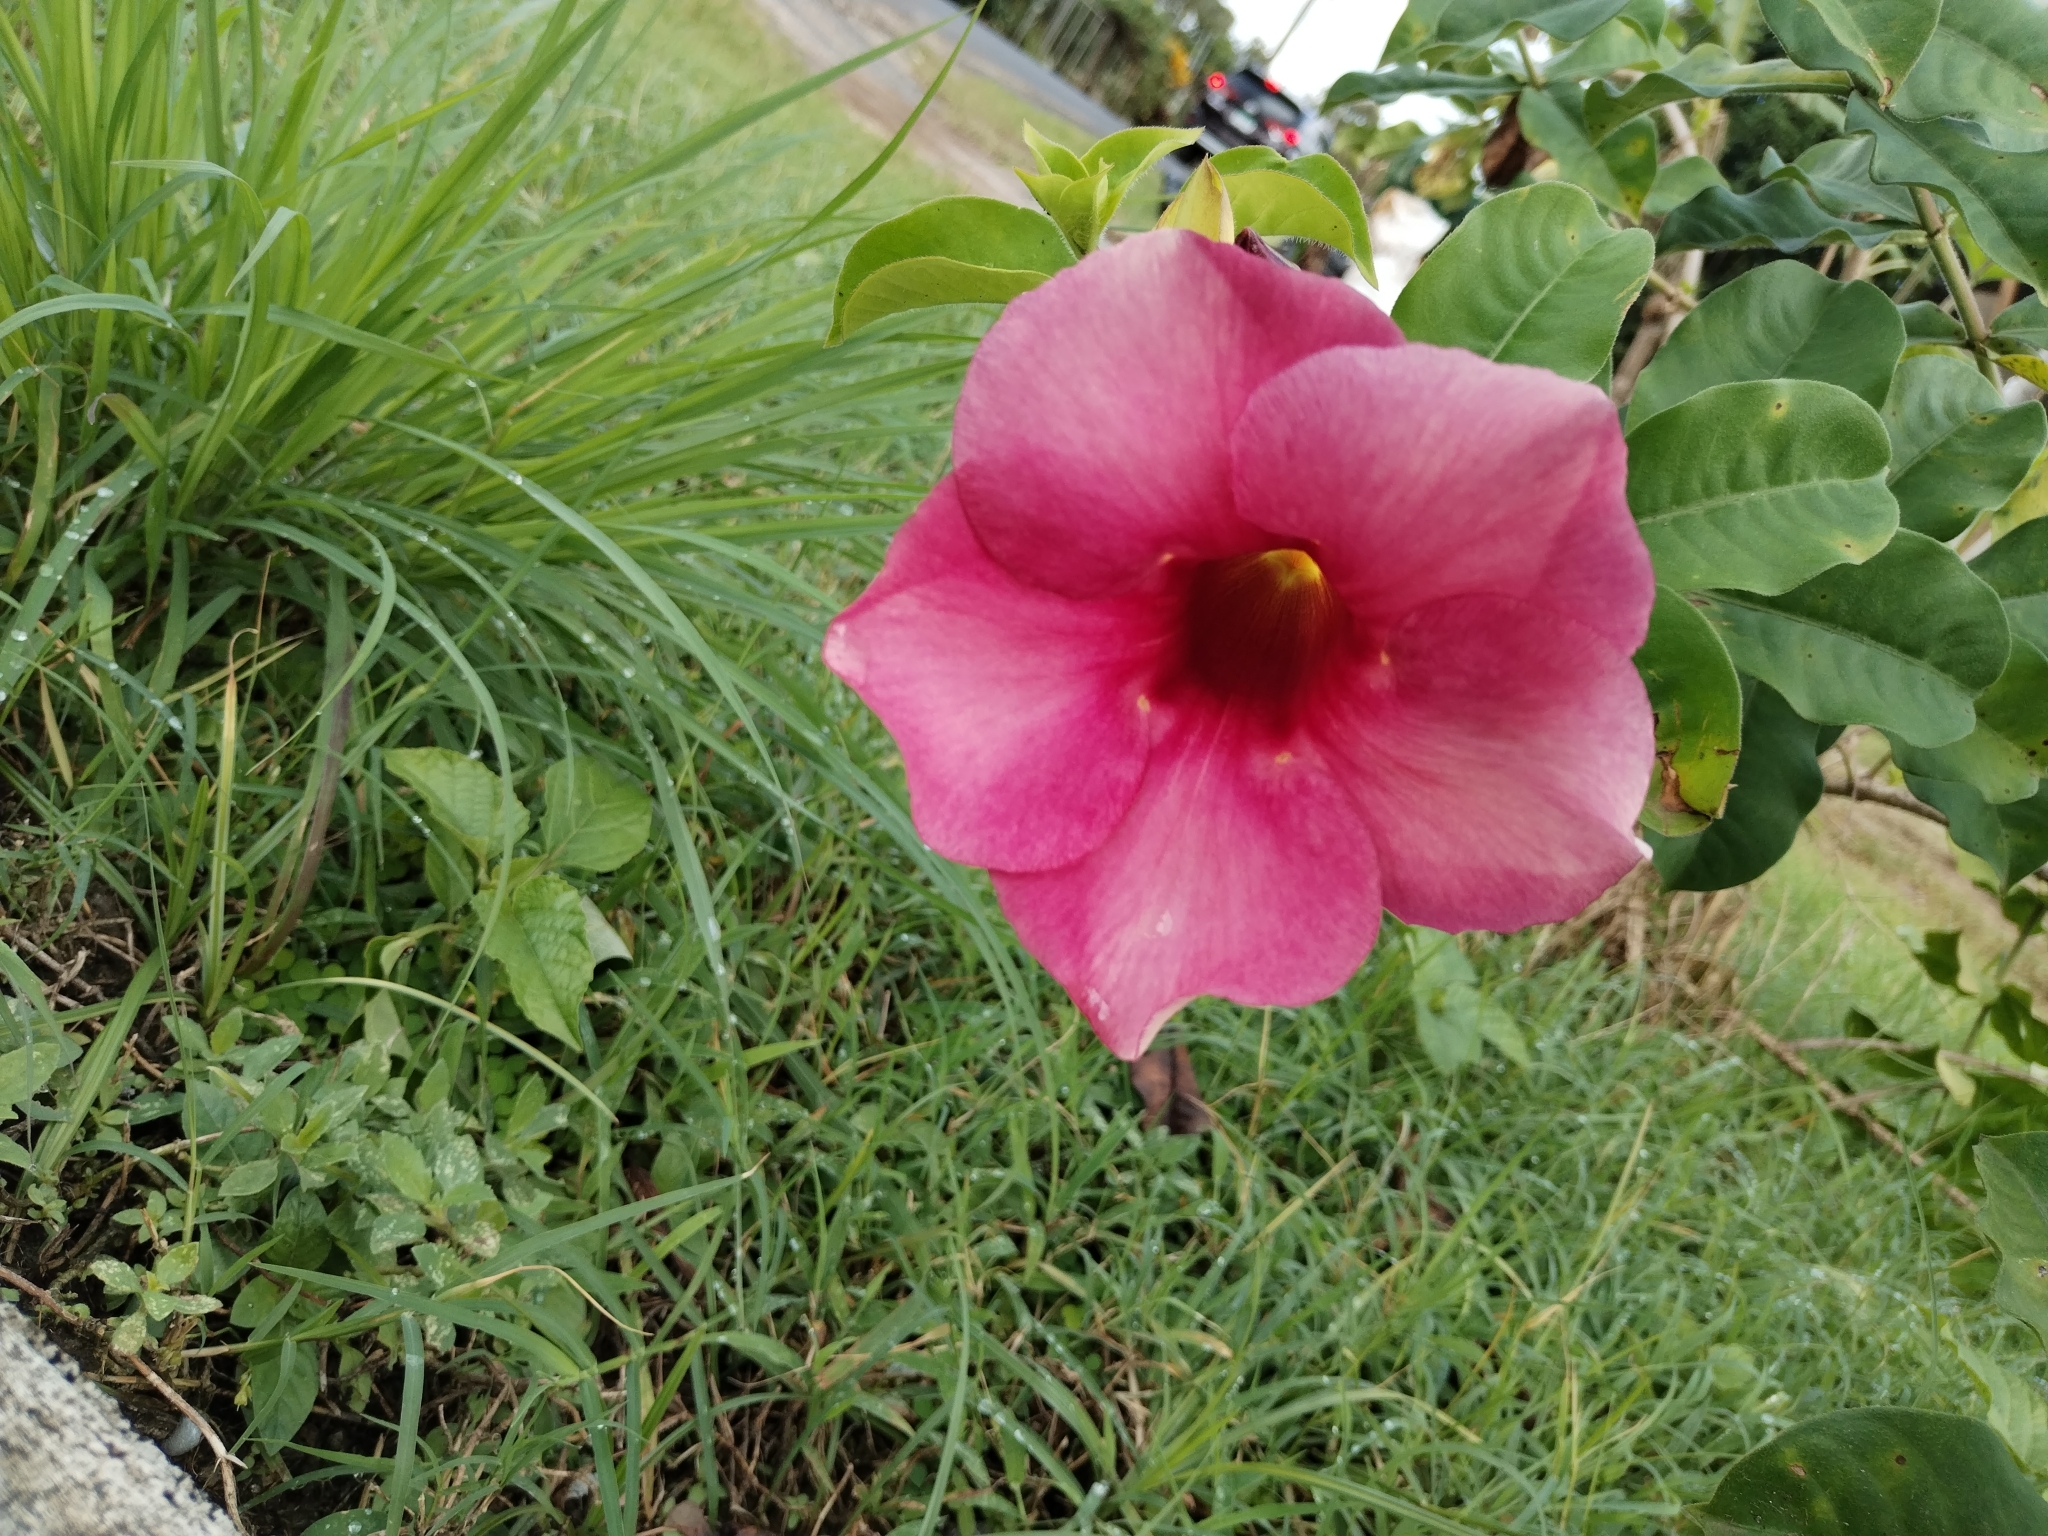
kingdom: Plantae
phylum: Tracheophyta
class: Magnoliopsida
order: Gentianales
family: Apocynaceae
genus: Allamanda
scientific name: Allamanda blanchetii
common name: Purple allamanda
